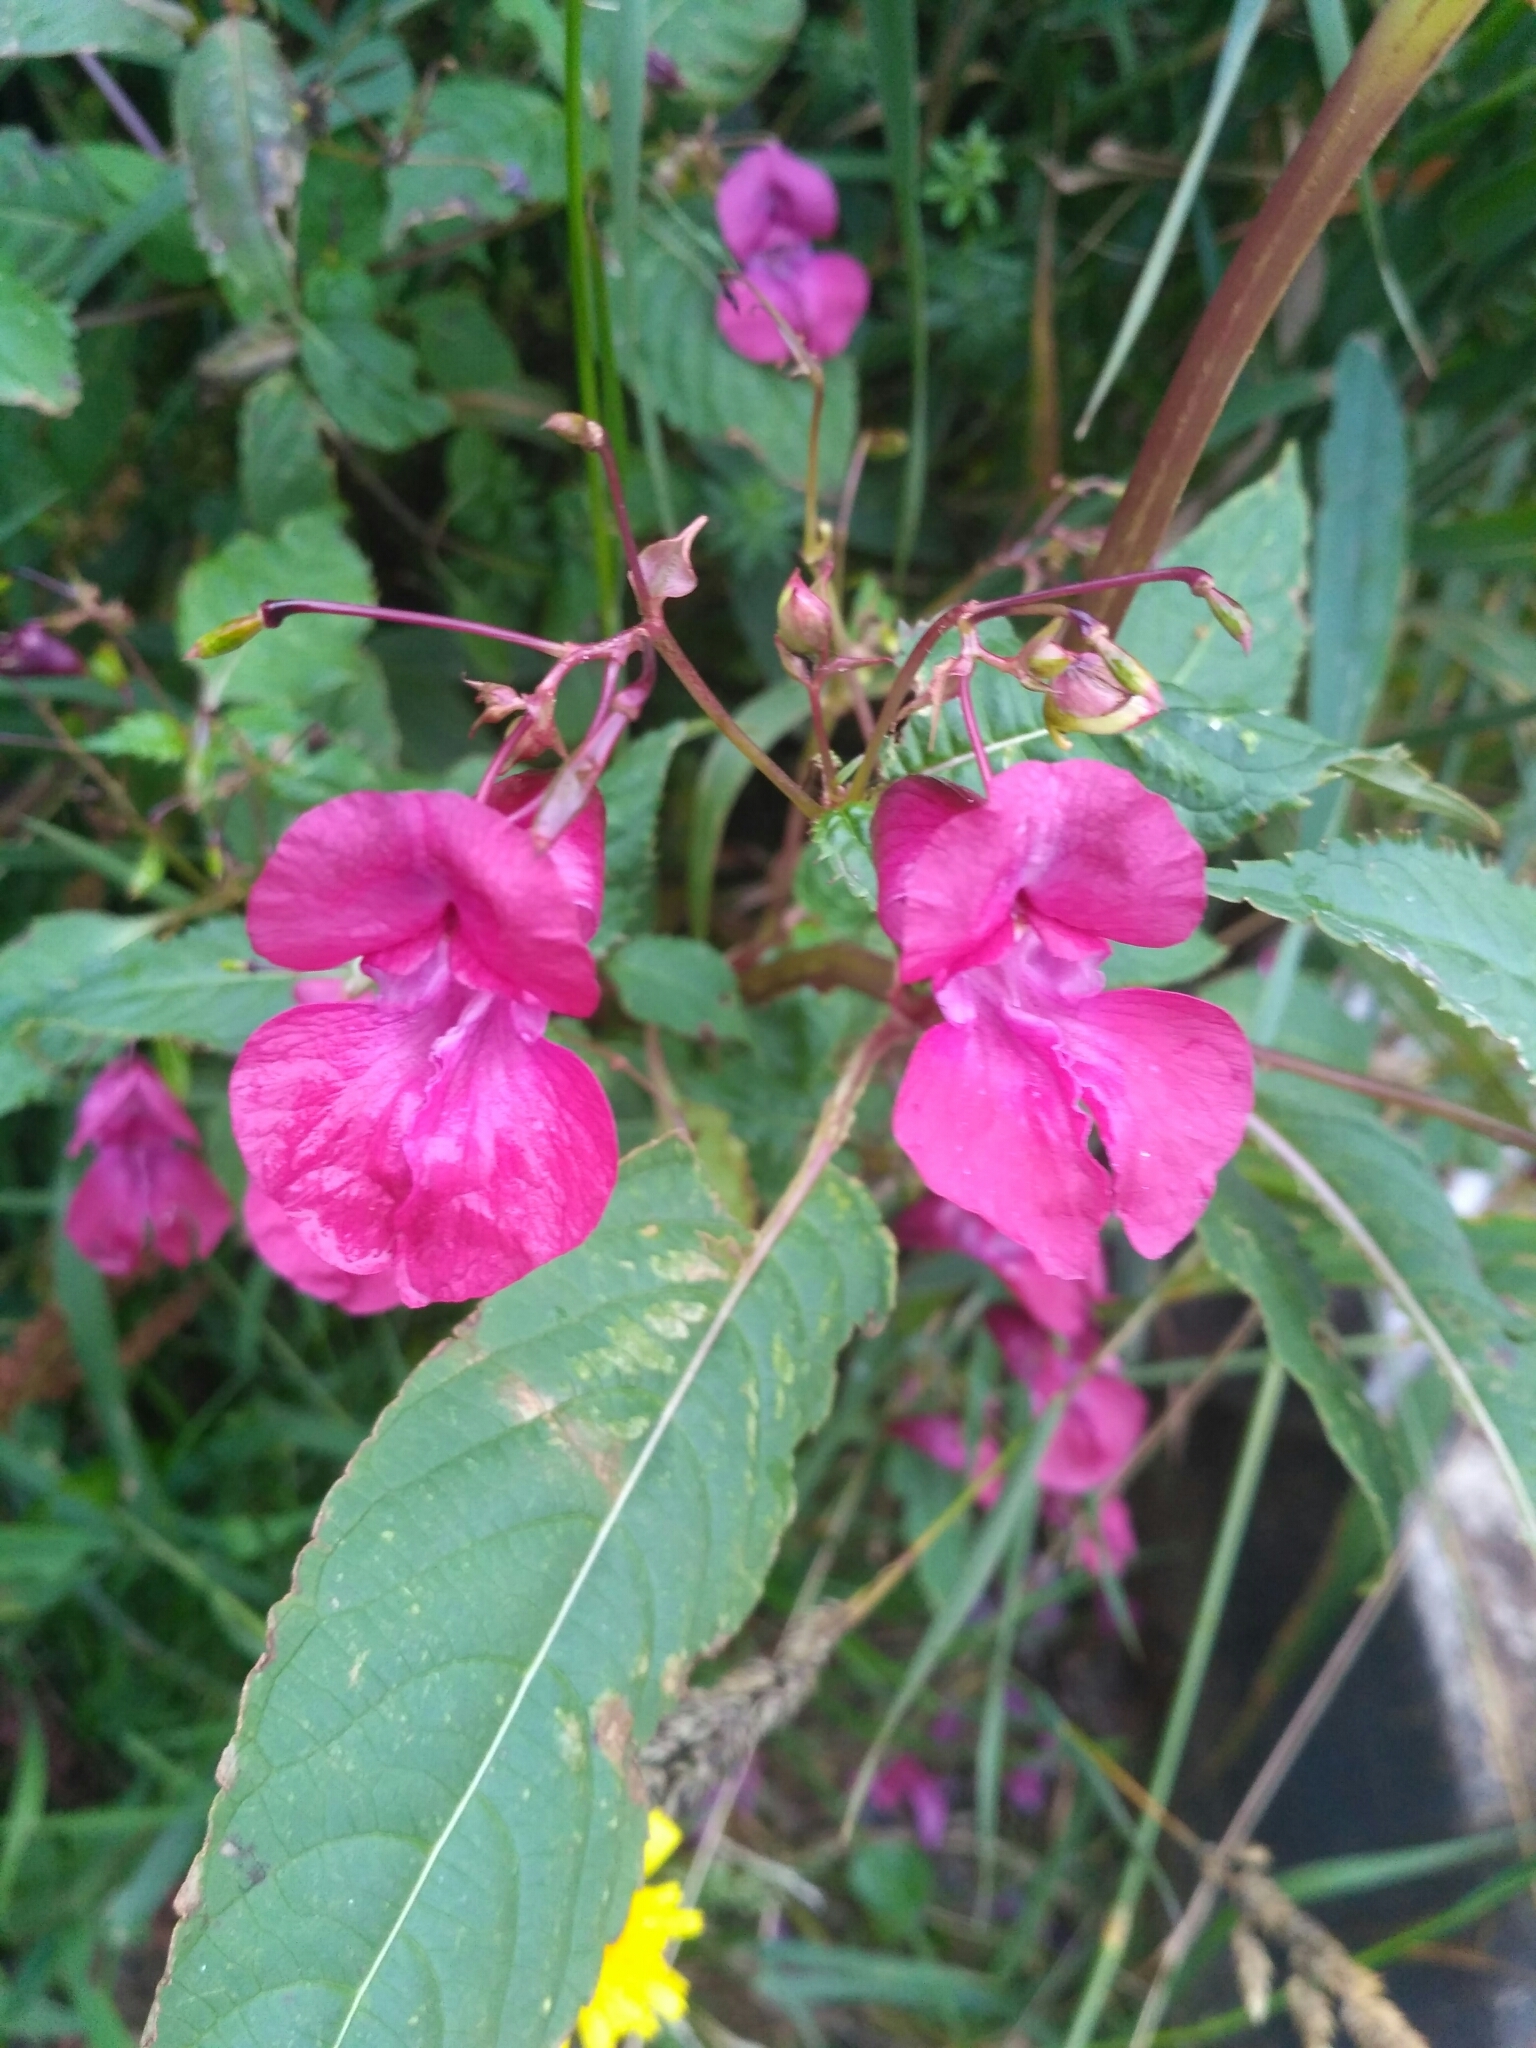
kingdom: Plantae
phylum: Tracheophyta
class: Magnoliopsida
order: Ericales
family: Balsaminaceae
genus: Impatiens
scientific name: Impatiens glandulifera
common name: Himalayan balsam
